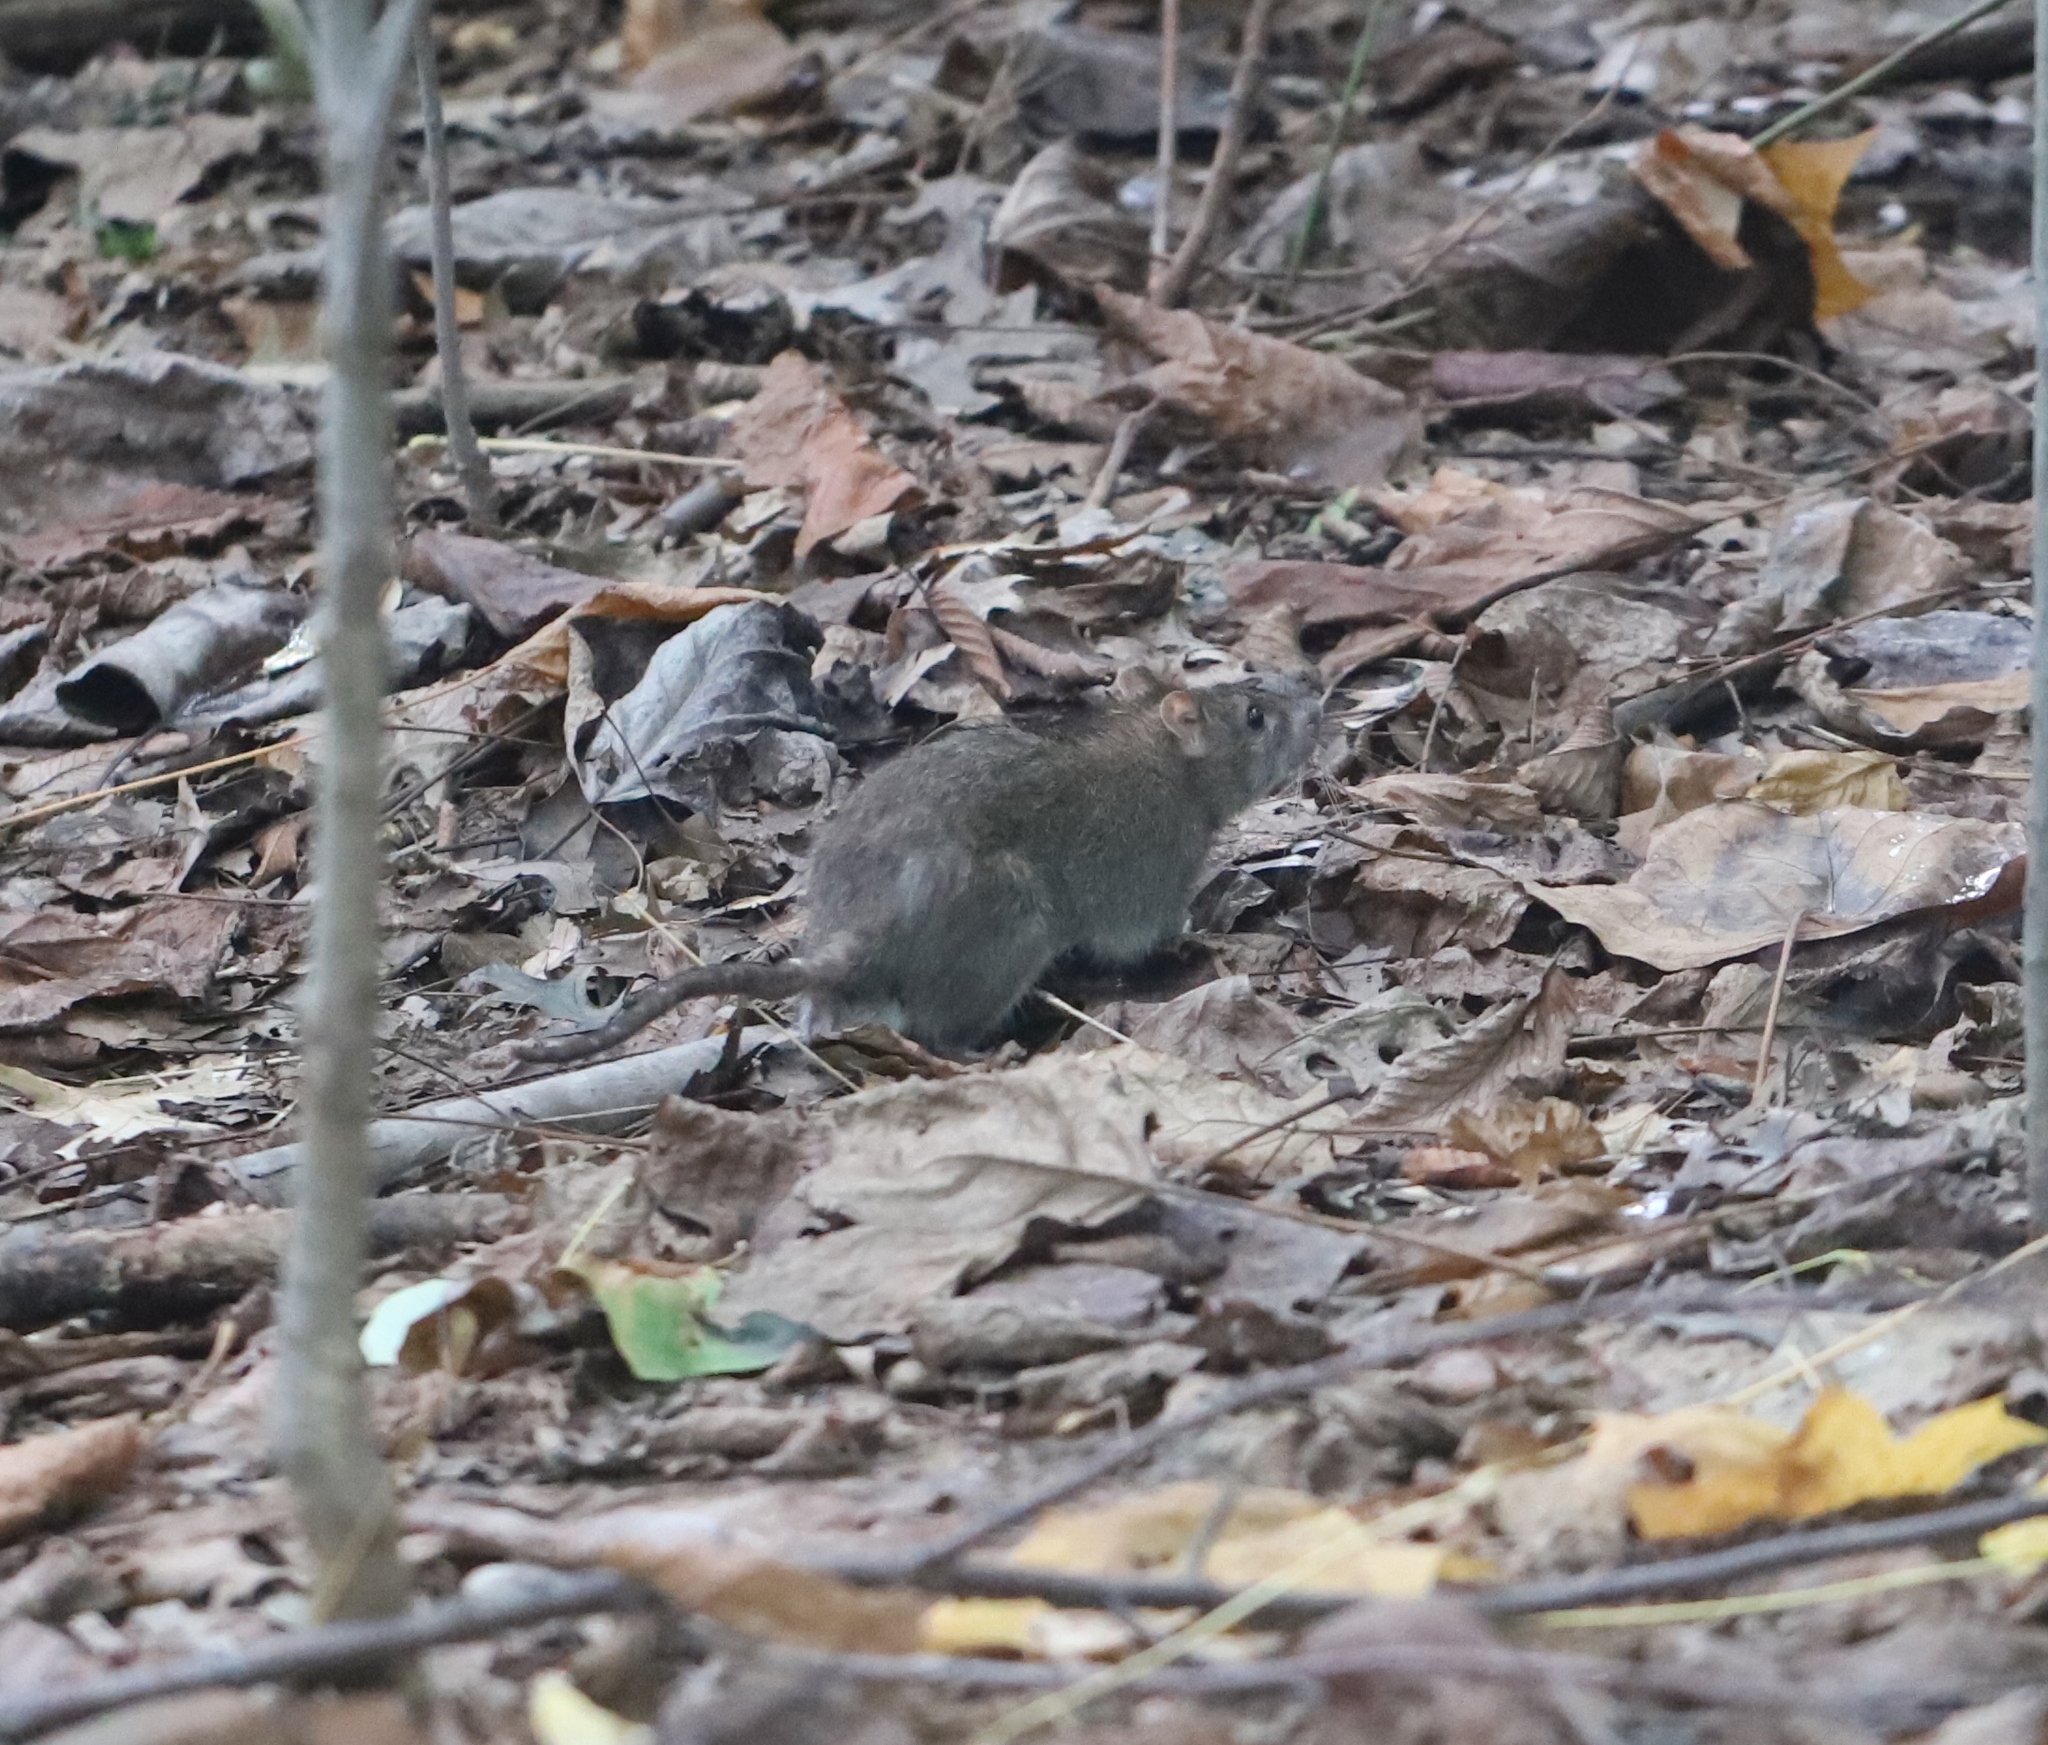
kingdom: Animalia
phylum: Chordata
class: Mammalia
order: Rodentia
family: Muridae
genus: Rattus
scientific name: Rattus norvegicus
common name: Brown rat
